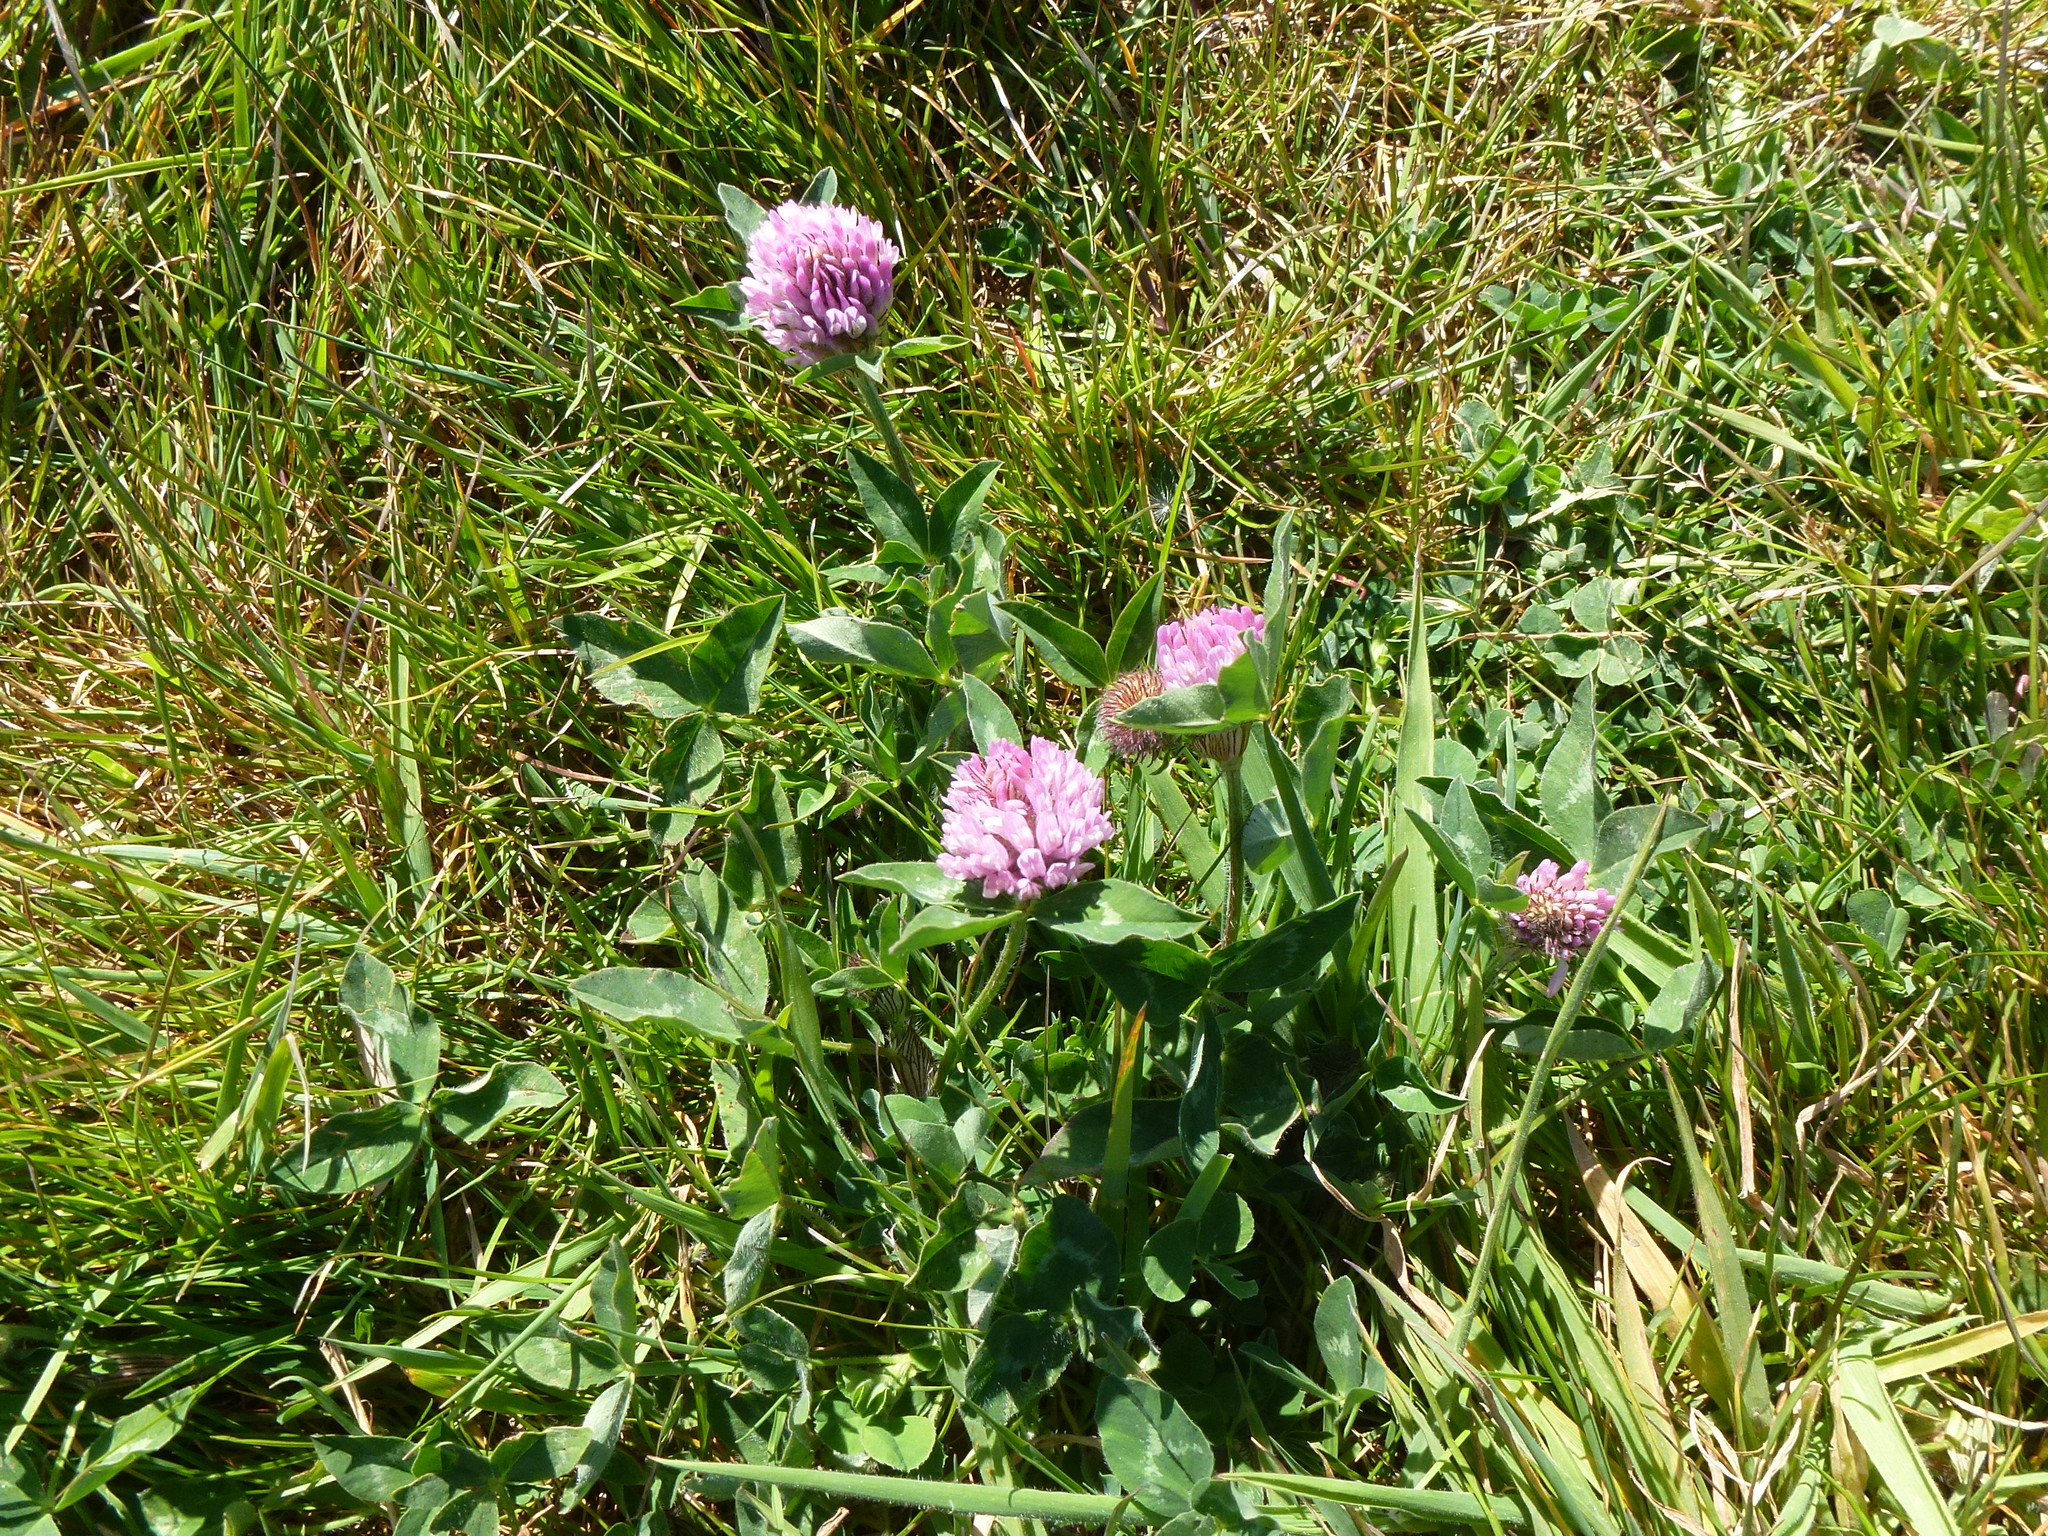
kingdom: Plantae
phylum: Tracheophyta
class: Magnoliopsida
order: Fabales
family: Fabaceae
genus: Trifolium
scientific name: Trifolium pratense
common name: Red clover
